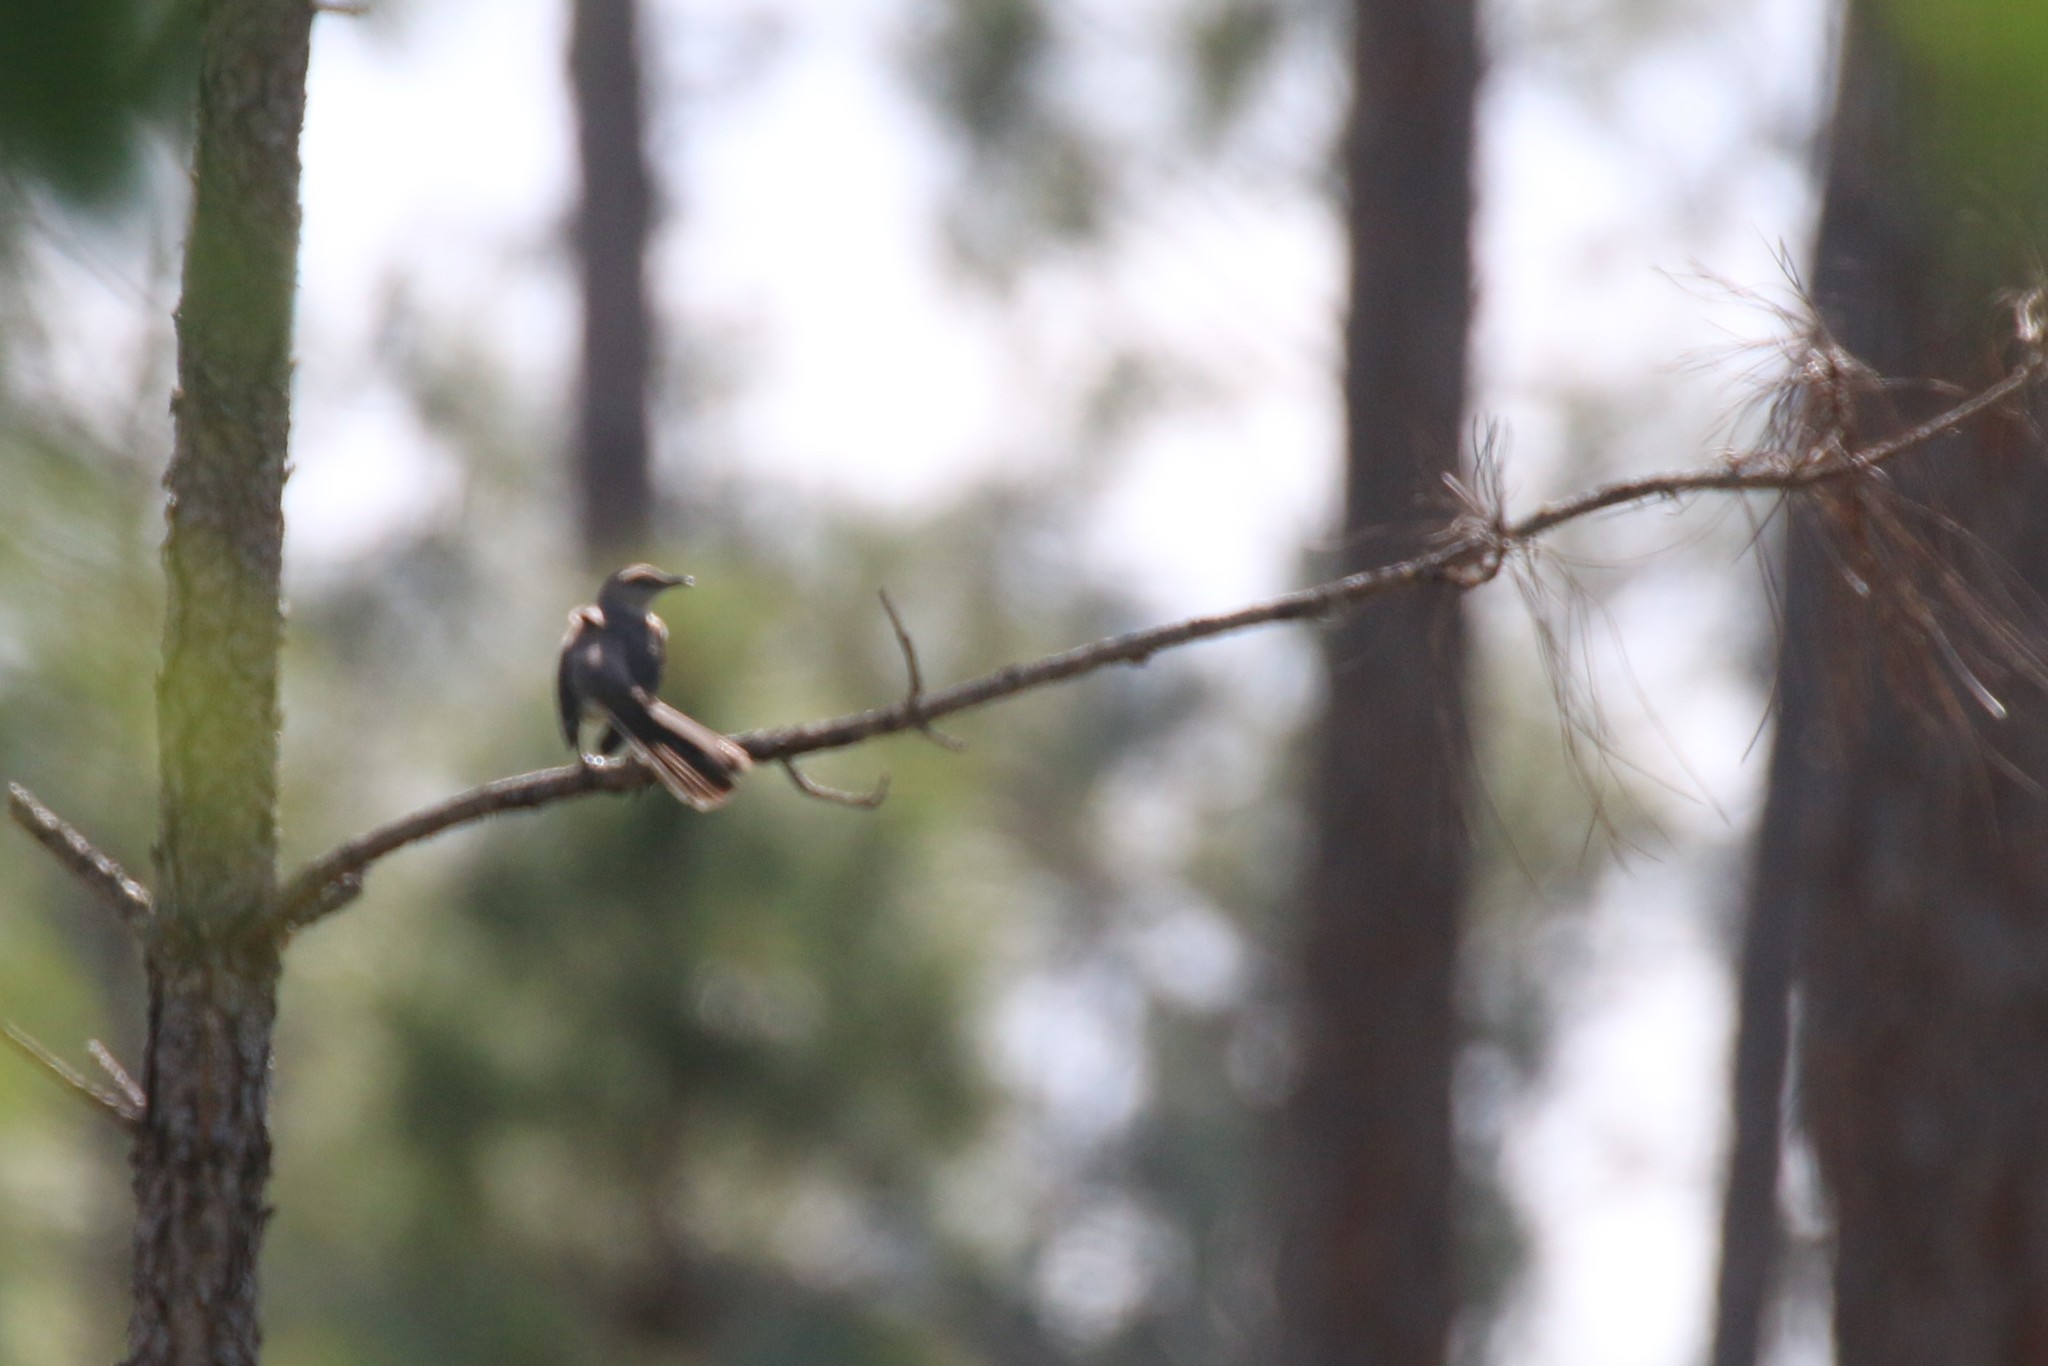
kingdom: Animalia
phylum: Chordata
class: Aves
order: Passeriformes
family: Mimidae
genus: Mimus
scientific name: Mimus polyglottos
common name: Northern mockingbird
